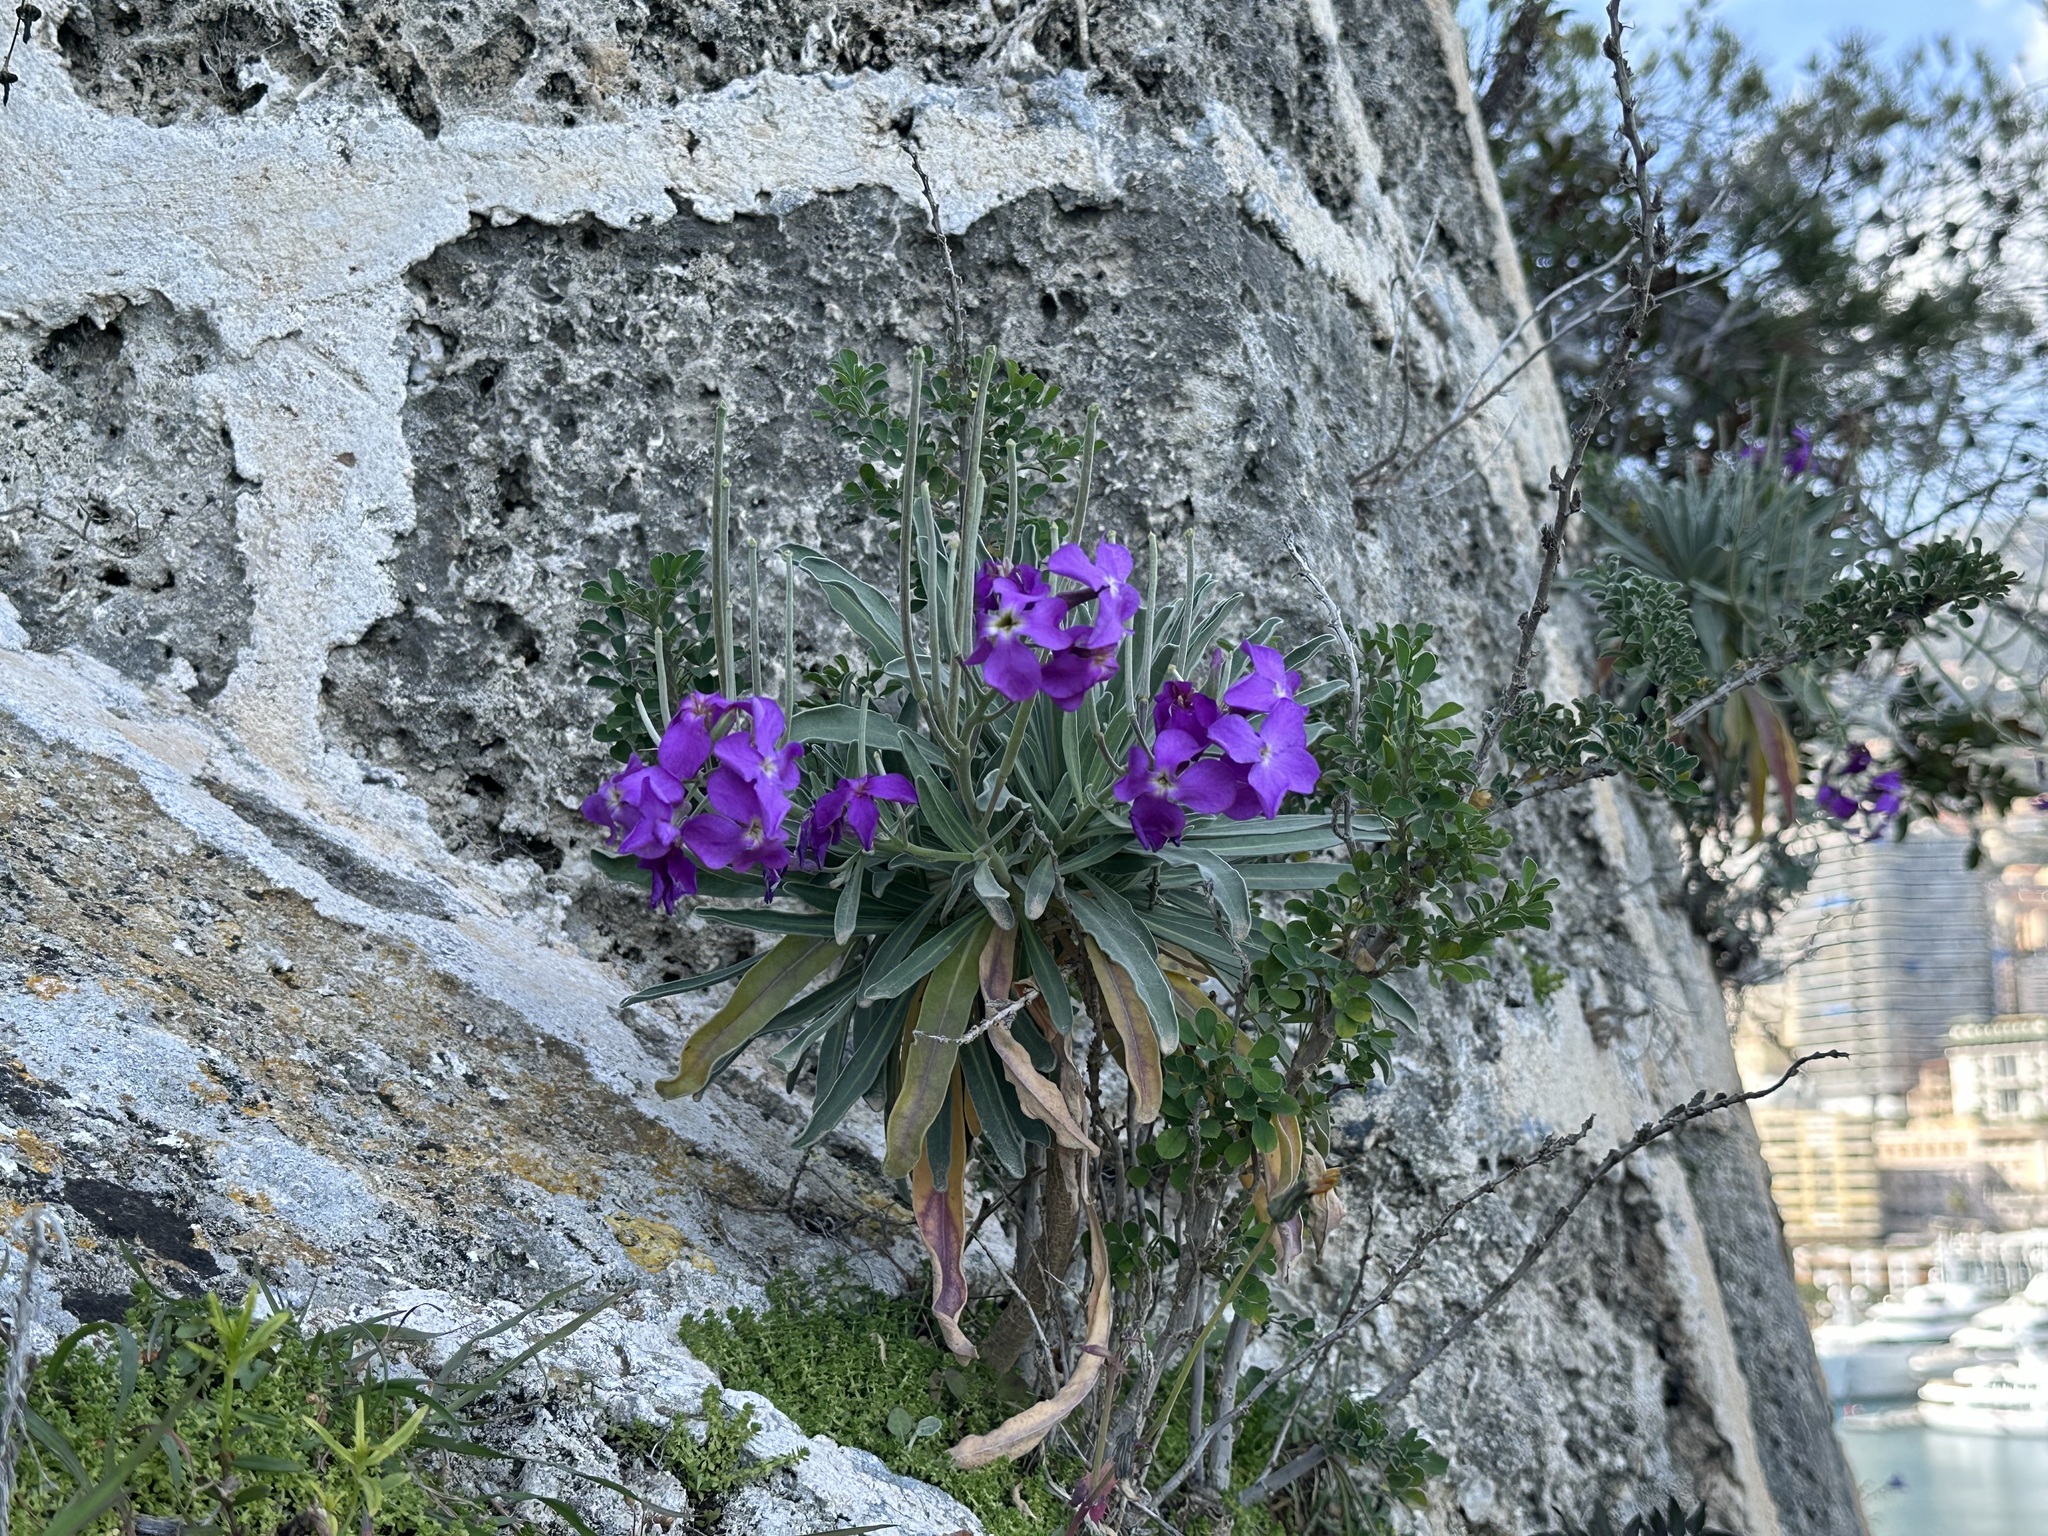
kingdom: Plantae
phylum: Tracheophyta
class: Magnoliopsida
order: Brassicales
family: Brassicaceae
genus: Matthiola
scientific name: Matthiola incana
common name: Hoary stock
